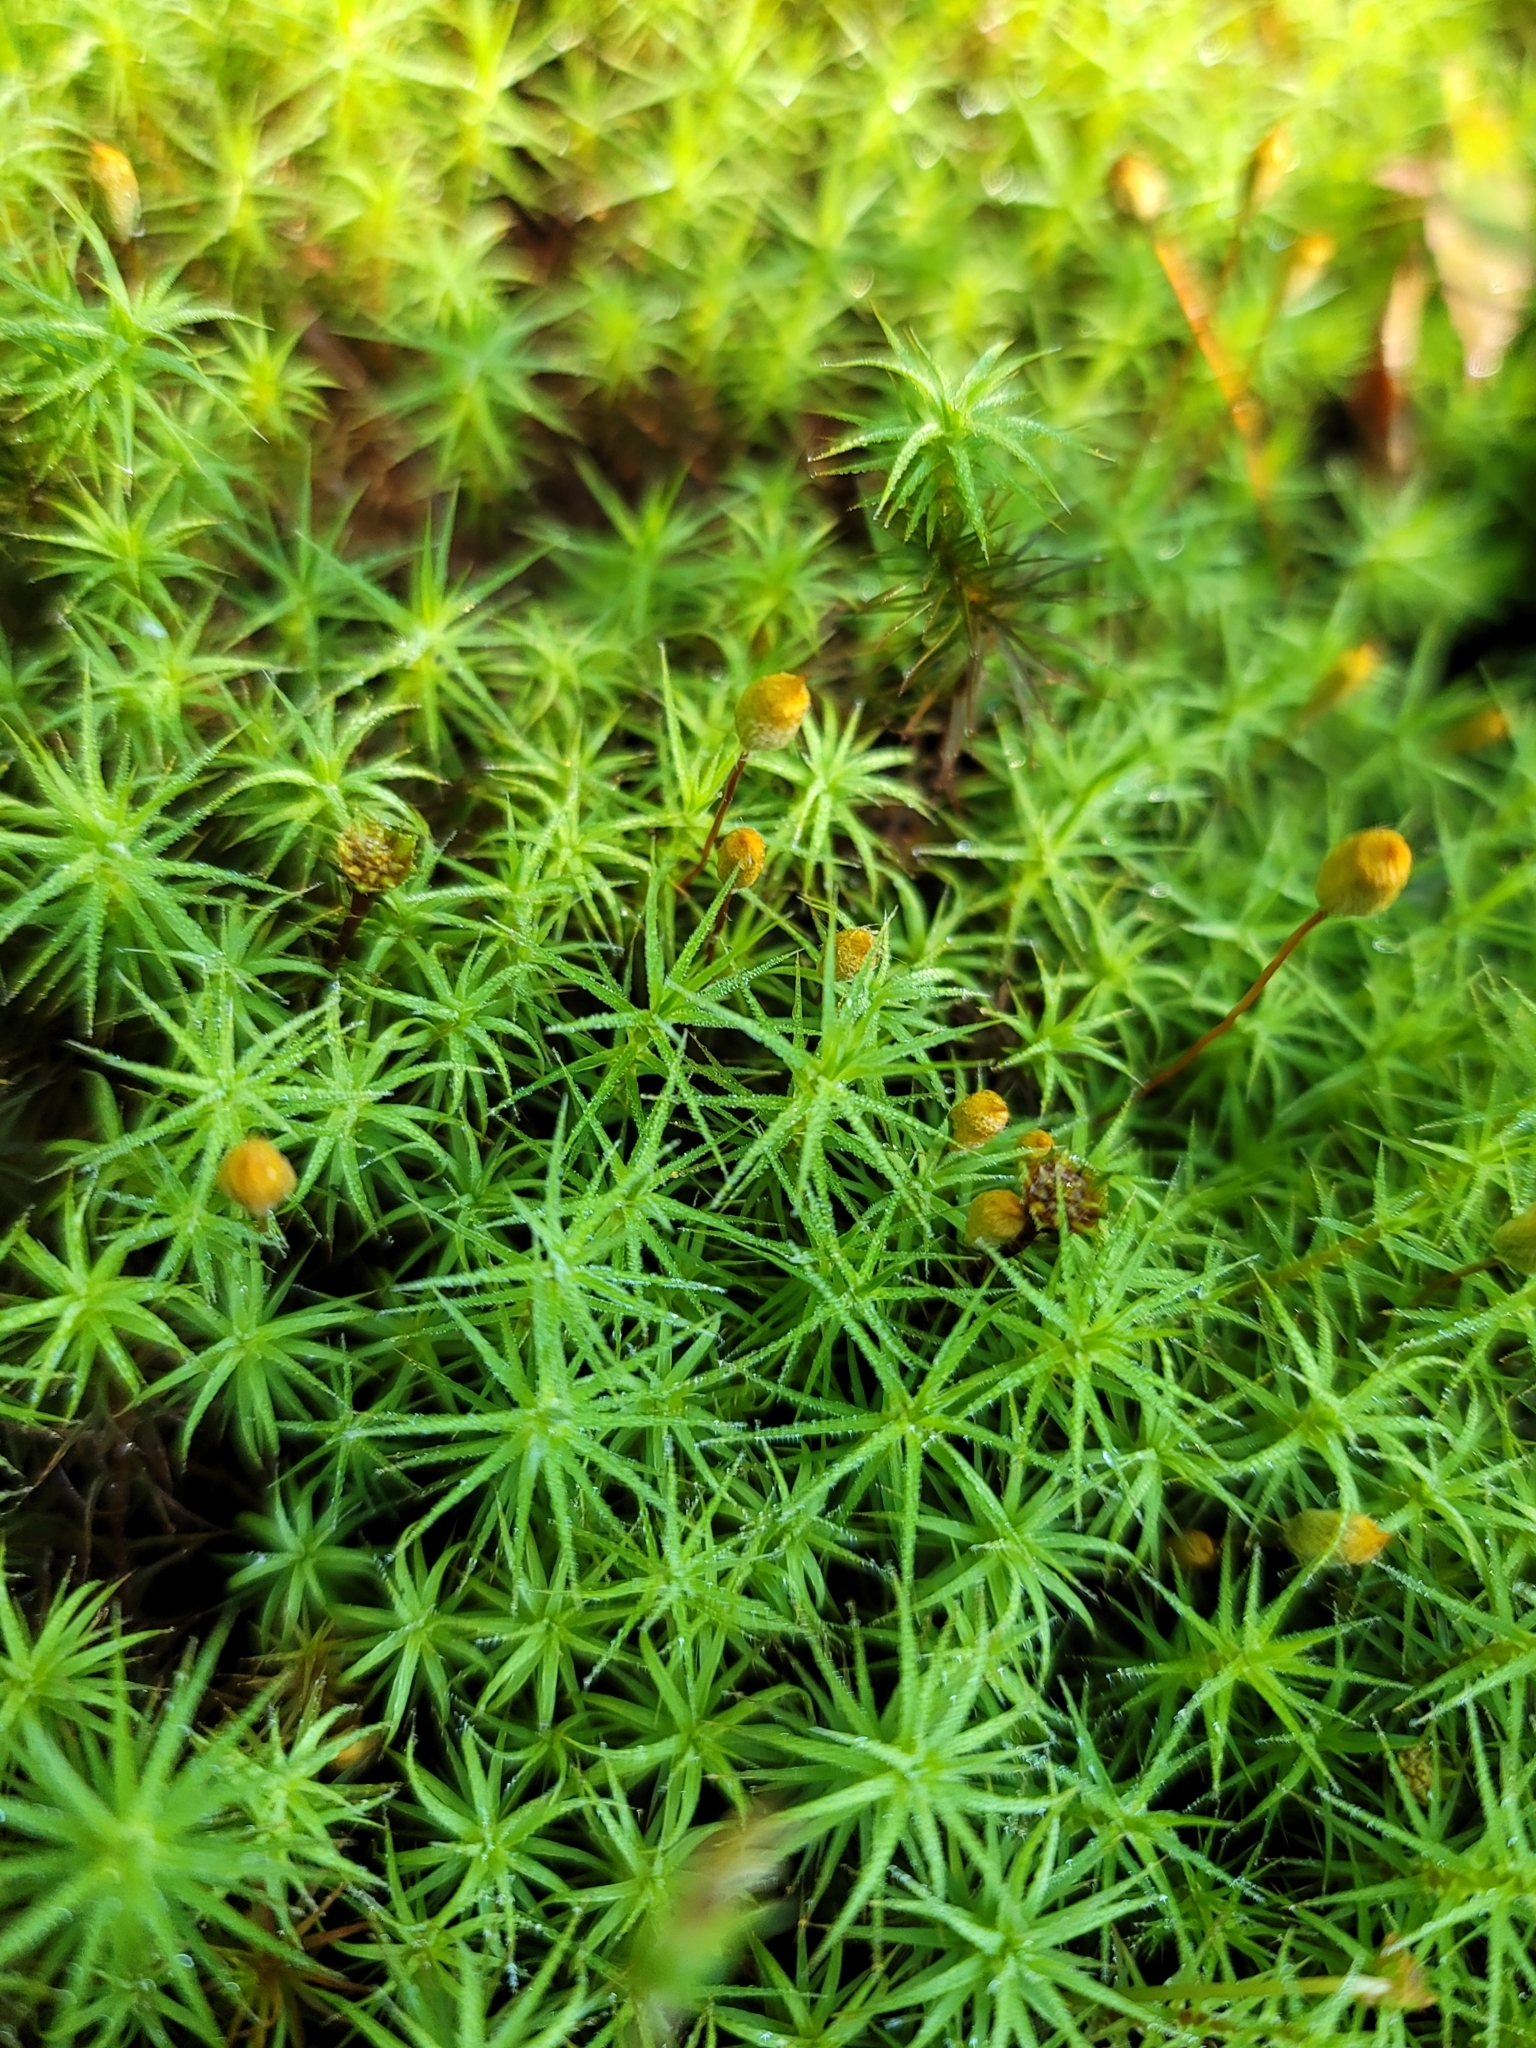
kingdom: Plantae
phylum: Bryophyta
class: Polytrichopsida
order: Polytrichales
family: Polytrichaceae
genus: Polytrichum
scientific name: Polytrichum commune
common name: Common haircap
